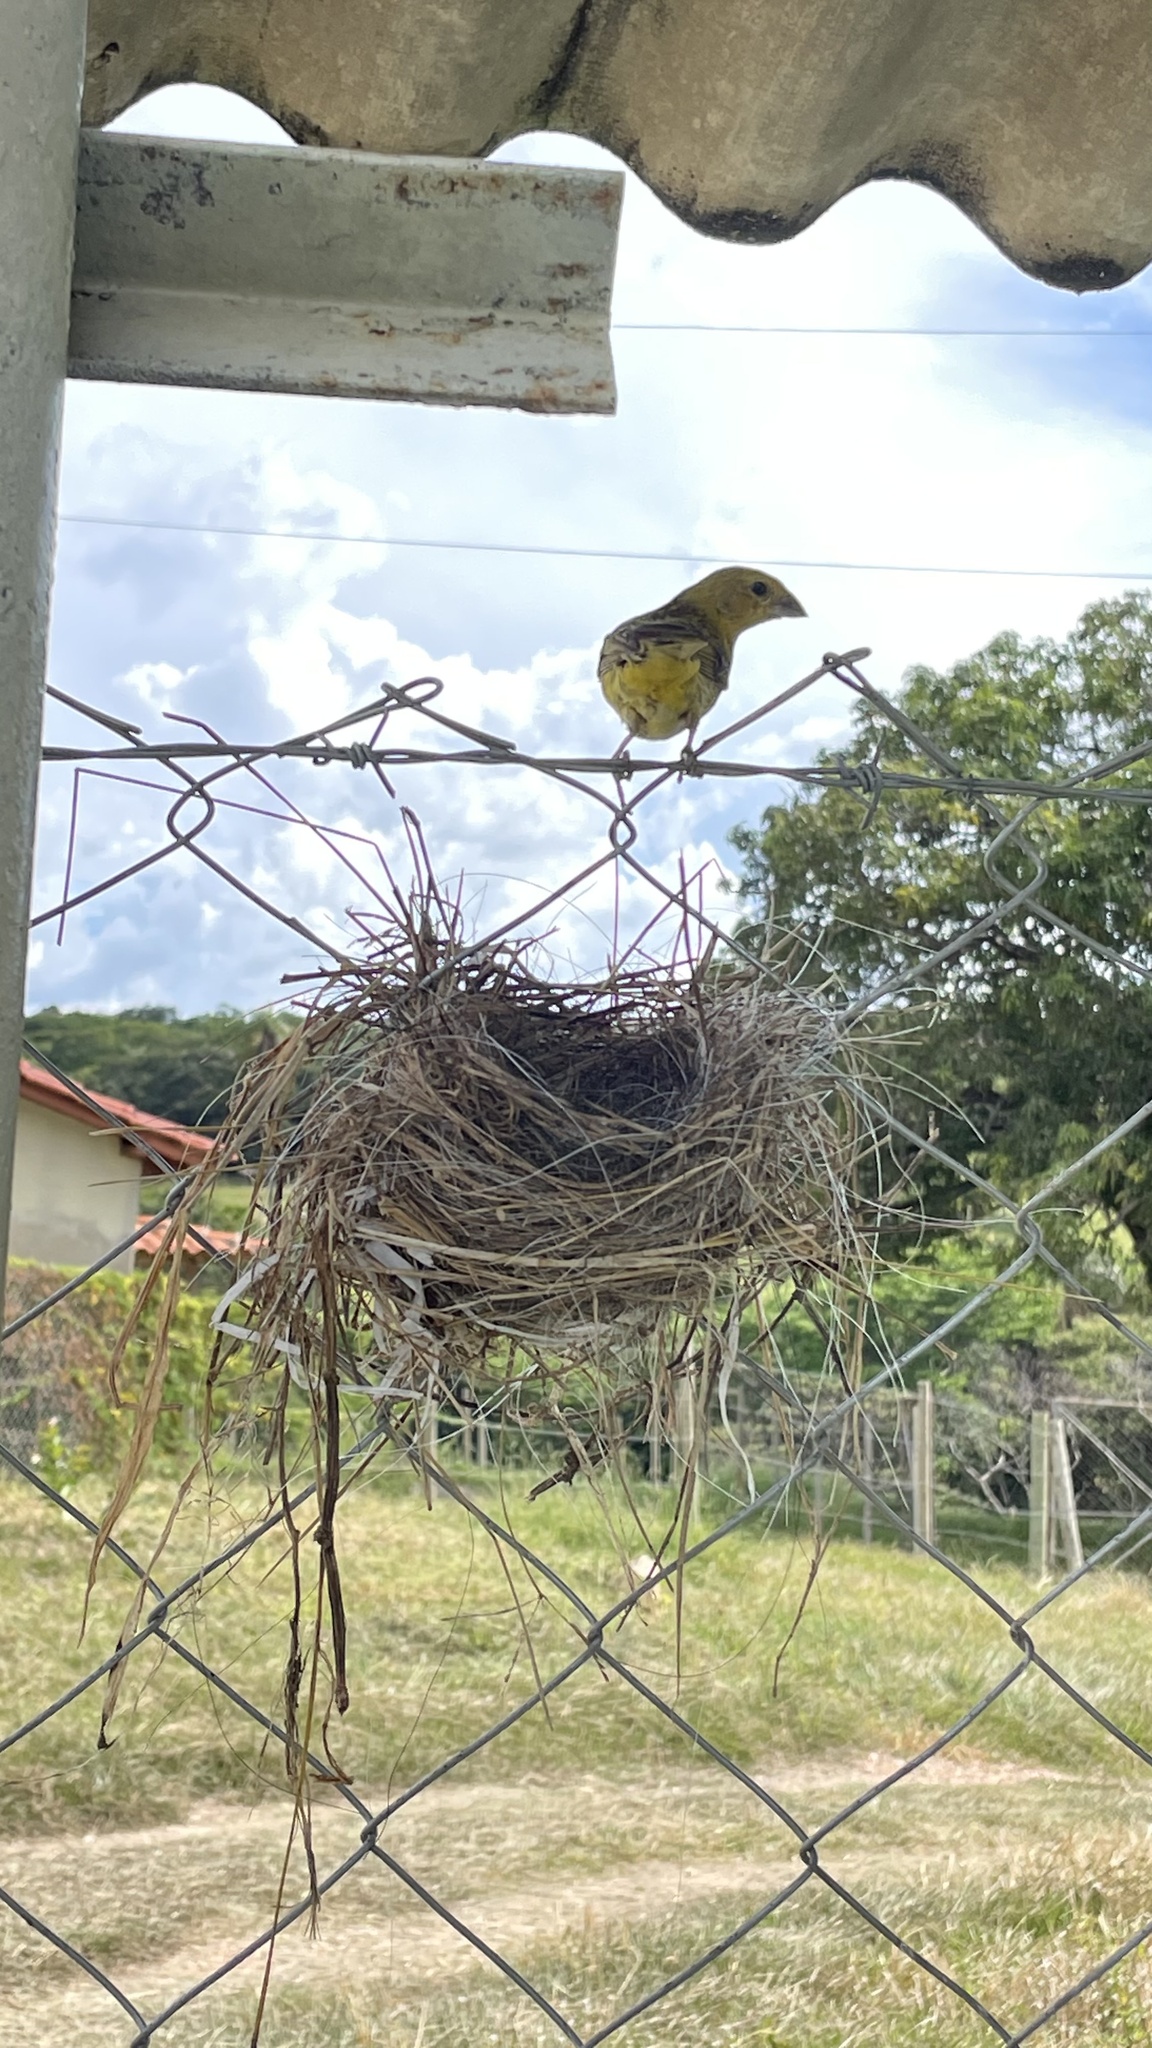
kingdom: Animalia
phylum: Chordata
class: Aves
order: Passeriformes
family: Thraupidae
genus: Sicalis
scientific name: Sicalis flaveola
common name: Saffron finch
